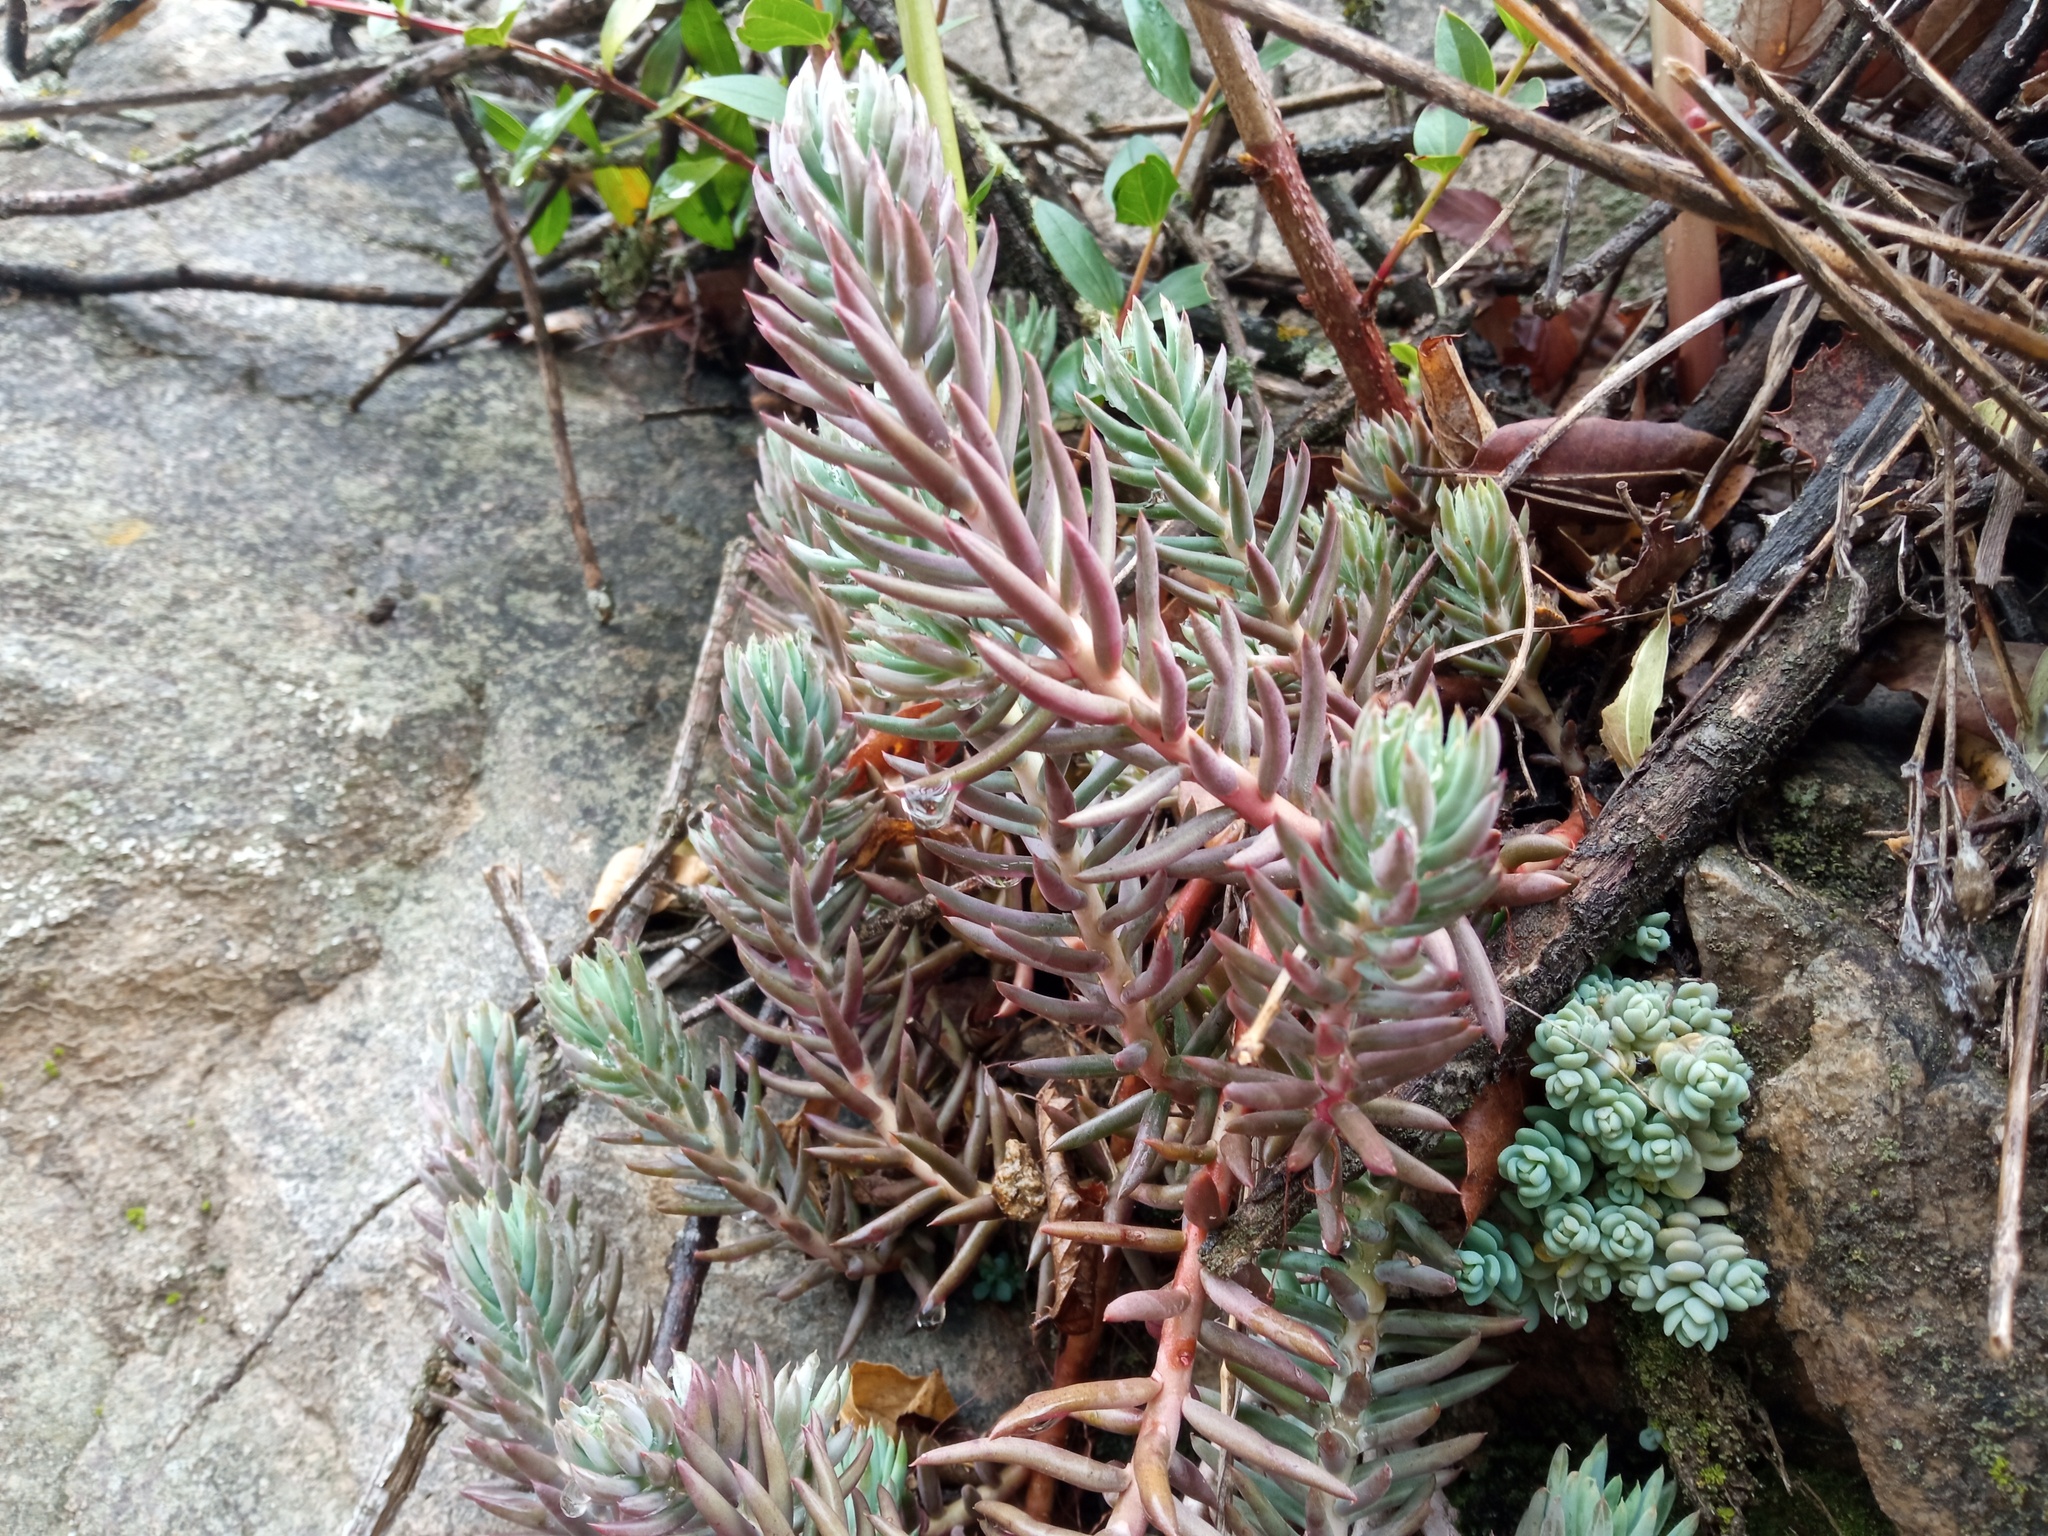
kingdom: Plantae
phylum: Tracheophyta
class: Magnoliopsida
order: Saxifragales
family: Crassulaceae
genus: Petrosedum
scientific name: Petrosedum sediforme
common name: Pale stonecrop
